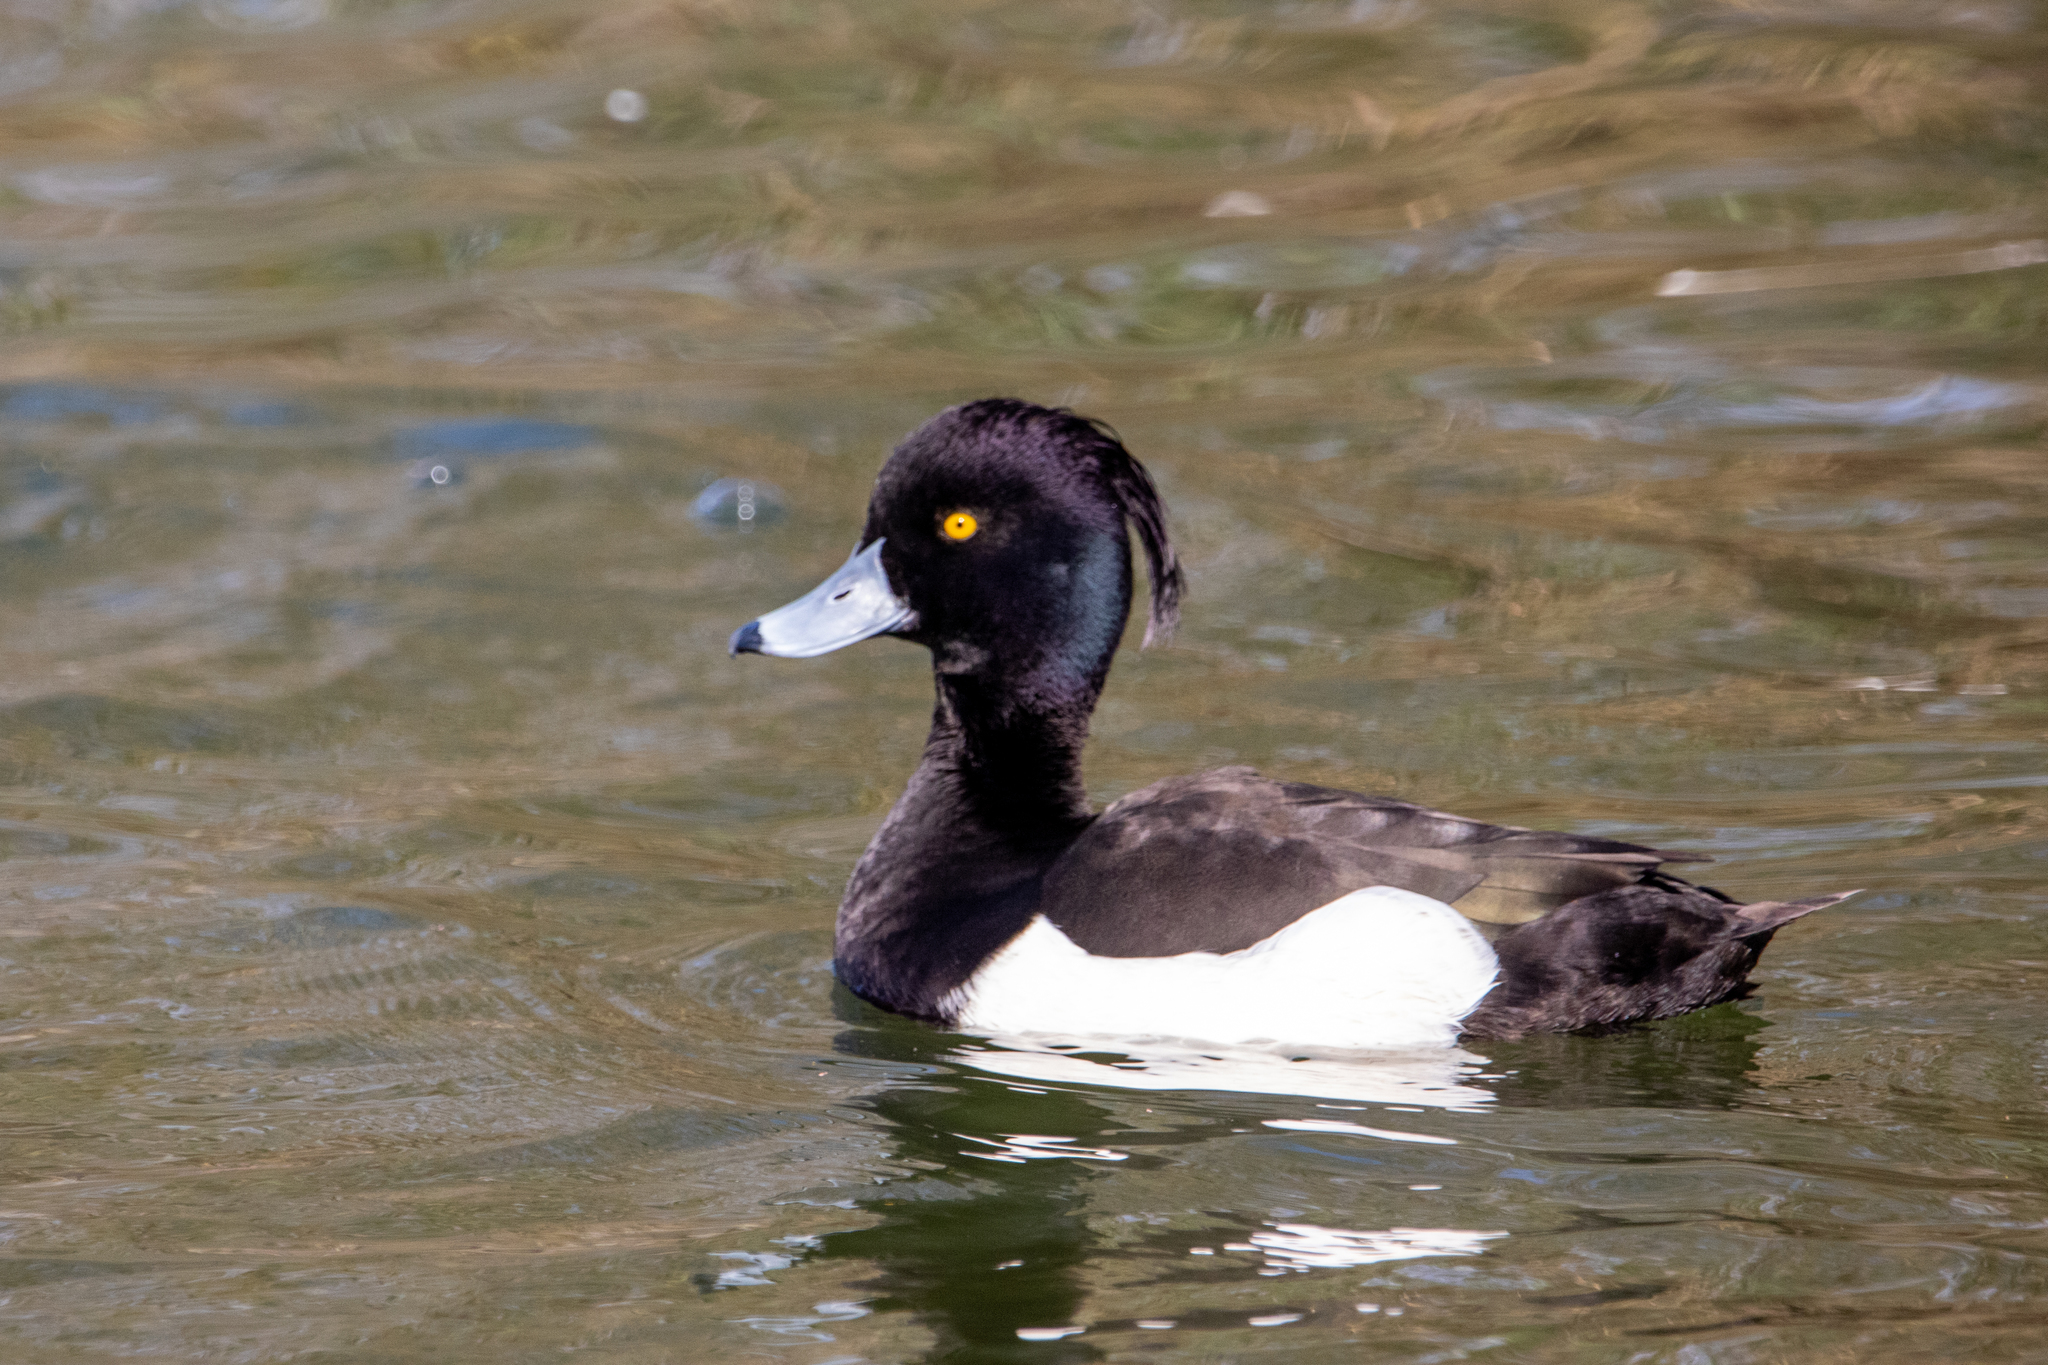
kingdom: Animalia
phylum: Chordata
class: Aves
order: Anseriformes
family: Anatidae
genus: Aythya
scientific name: Aythya fuligula
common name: Tufted duck
